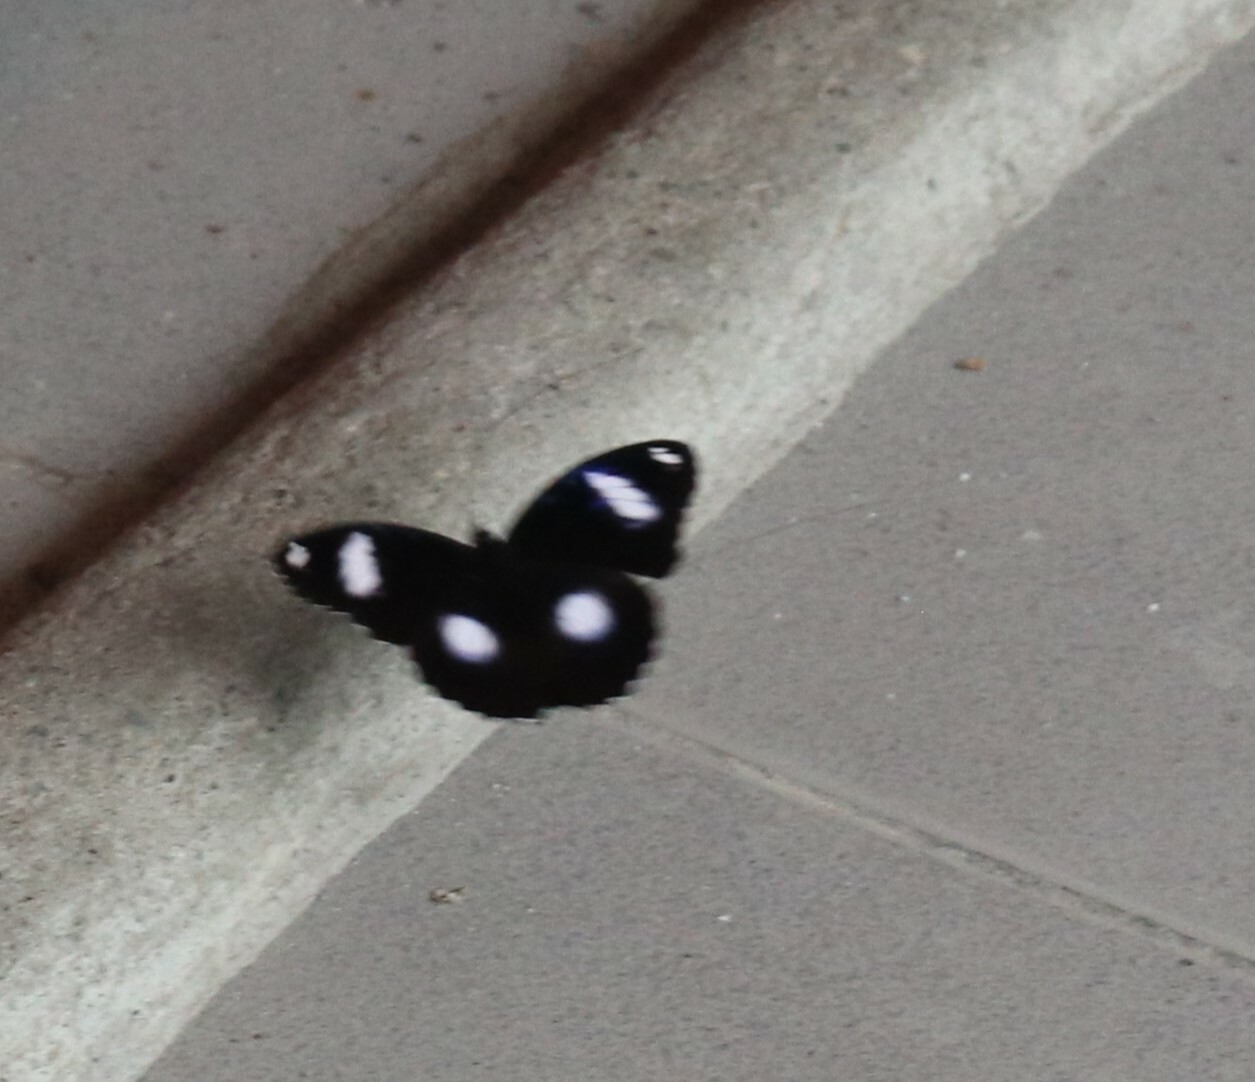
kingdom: Animalia
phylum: Arthropoda
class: Insecta
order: Lepidoptera
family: Nymphalidae
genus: Hypolimnas
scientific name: Hypolimnas bolina
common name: Great eggfly
